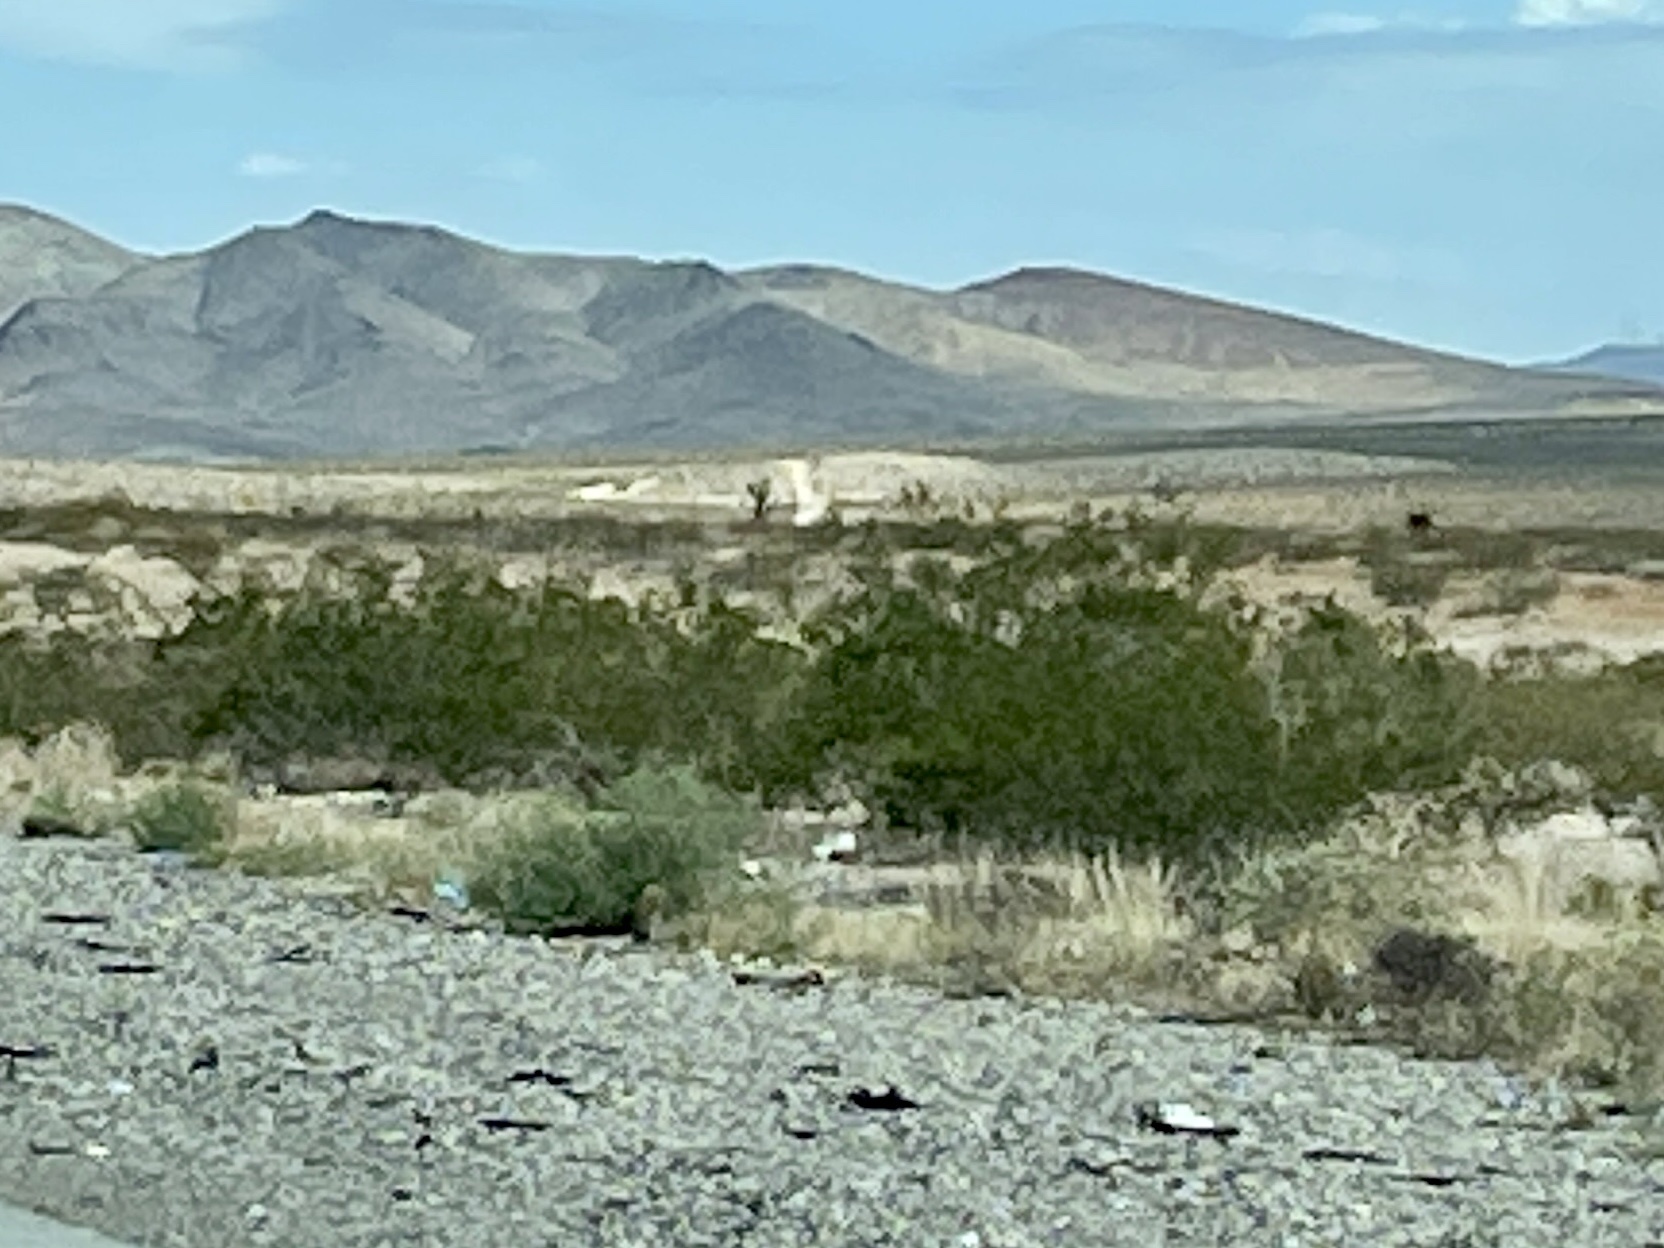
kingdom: Plantae
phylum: Tracheophyta
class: Magnoliopsida
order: Zygophyllales
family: Zygophyllaceae
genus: Larrea
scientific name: Larrea tridentata
